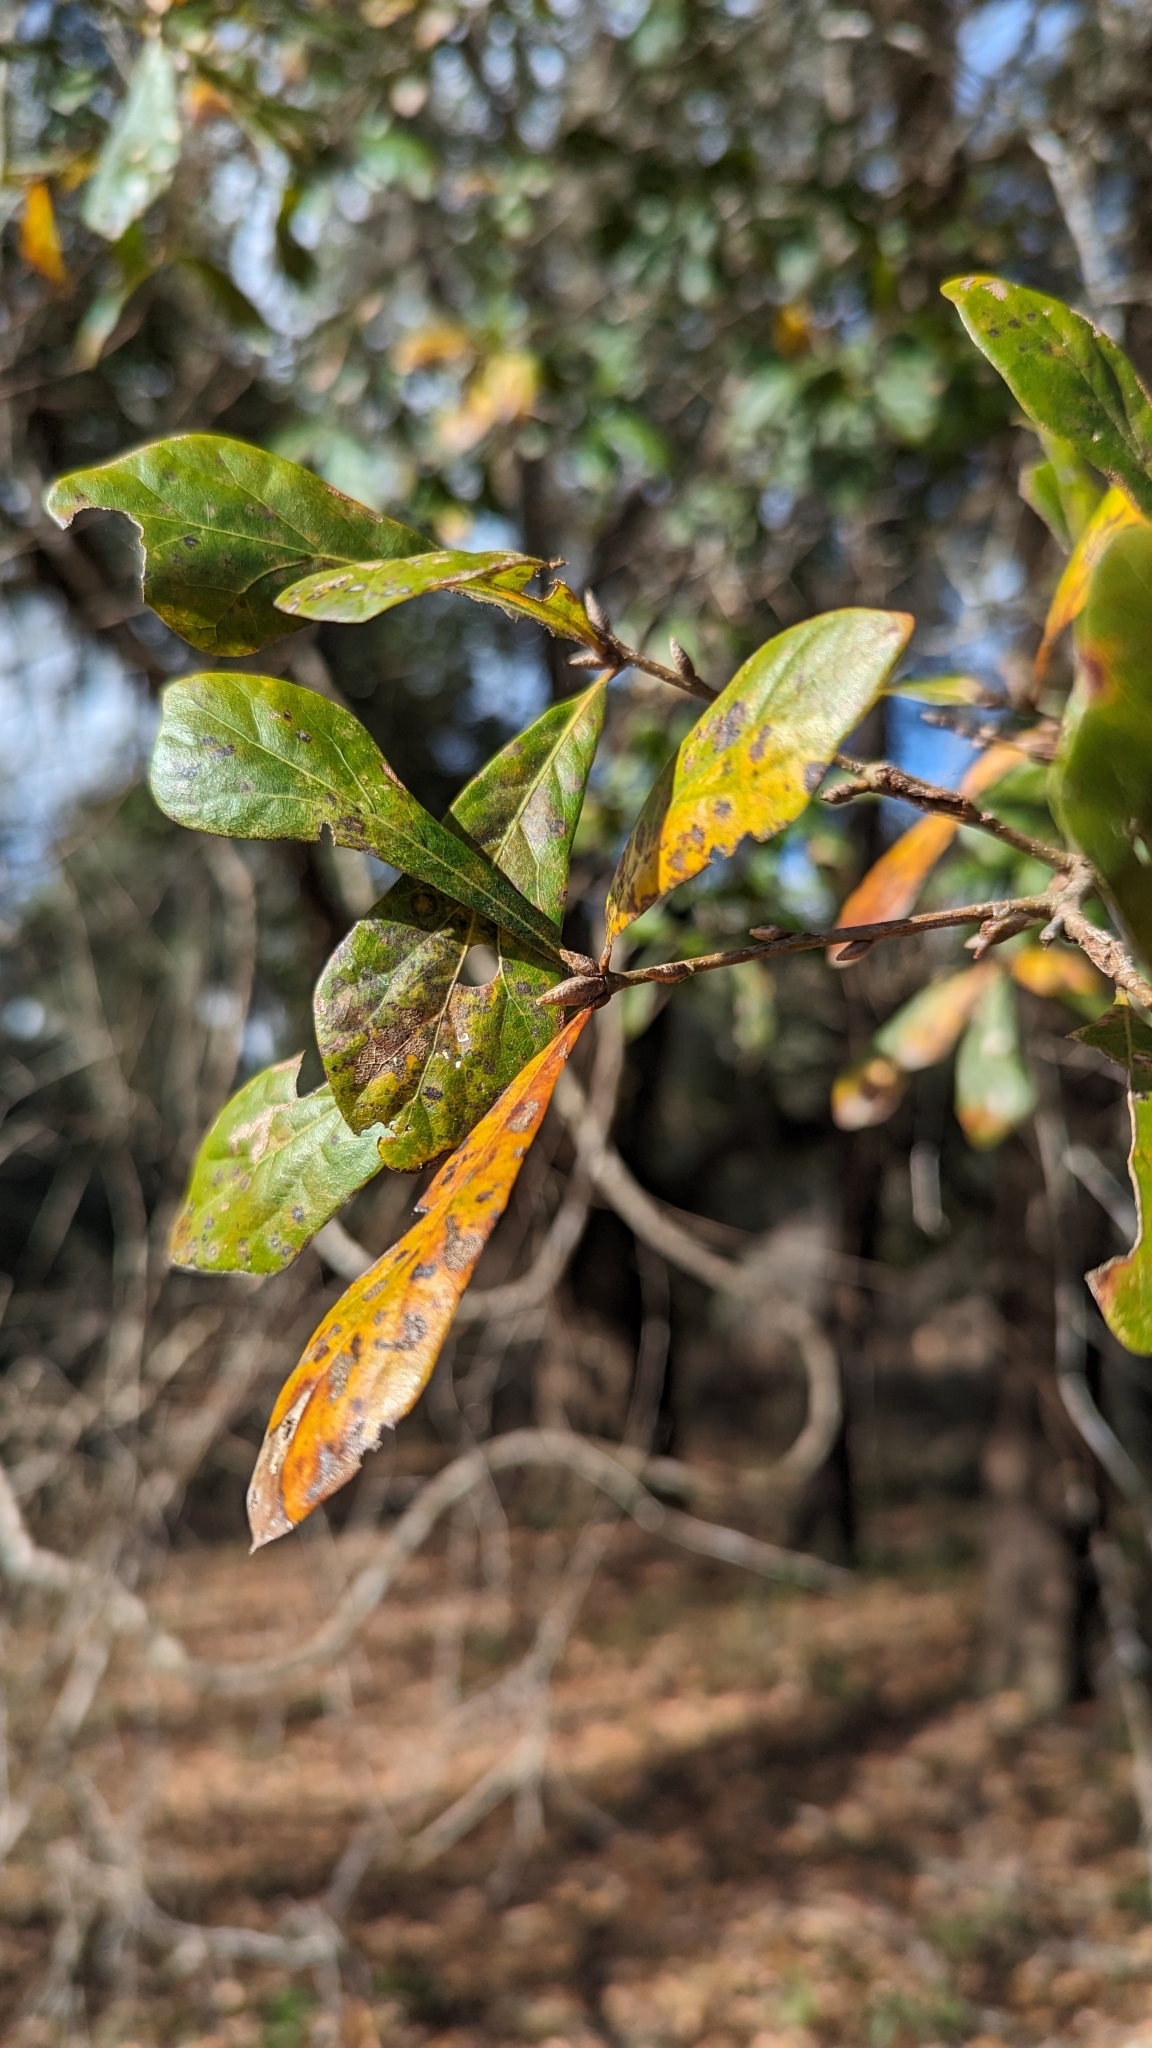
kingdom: Plantae
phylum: Tracheophyta
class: Magnoliopsida
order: Fagales
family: Fagaceae
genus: Quercus
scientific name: Quercus nigra
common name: Water oak
